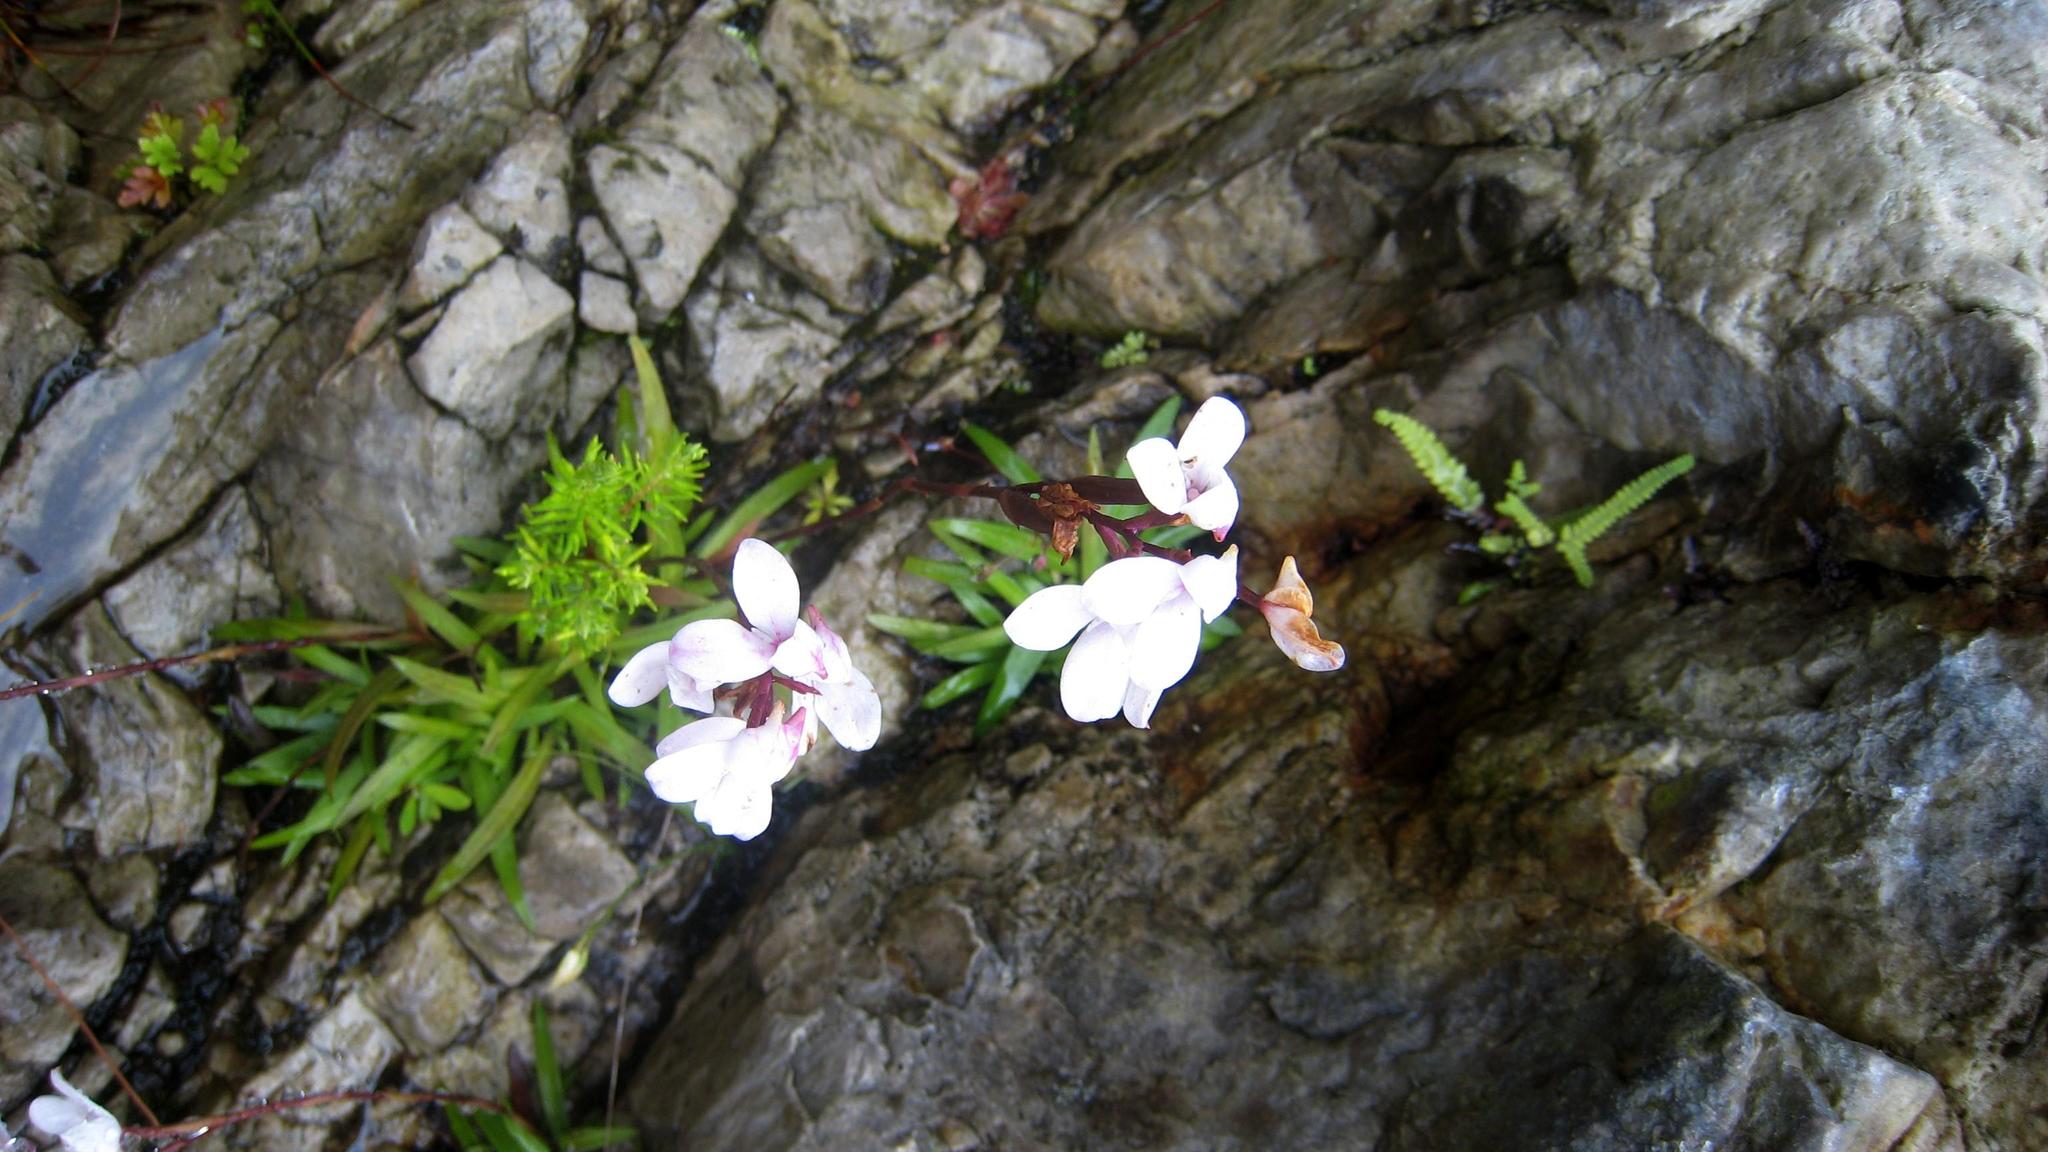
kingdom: Plantae
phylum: Tracheophyta
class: Liliopsida
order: Asparagales
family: Orchidaceae
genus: Disa
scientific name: Disa tripetaloides
